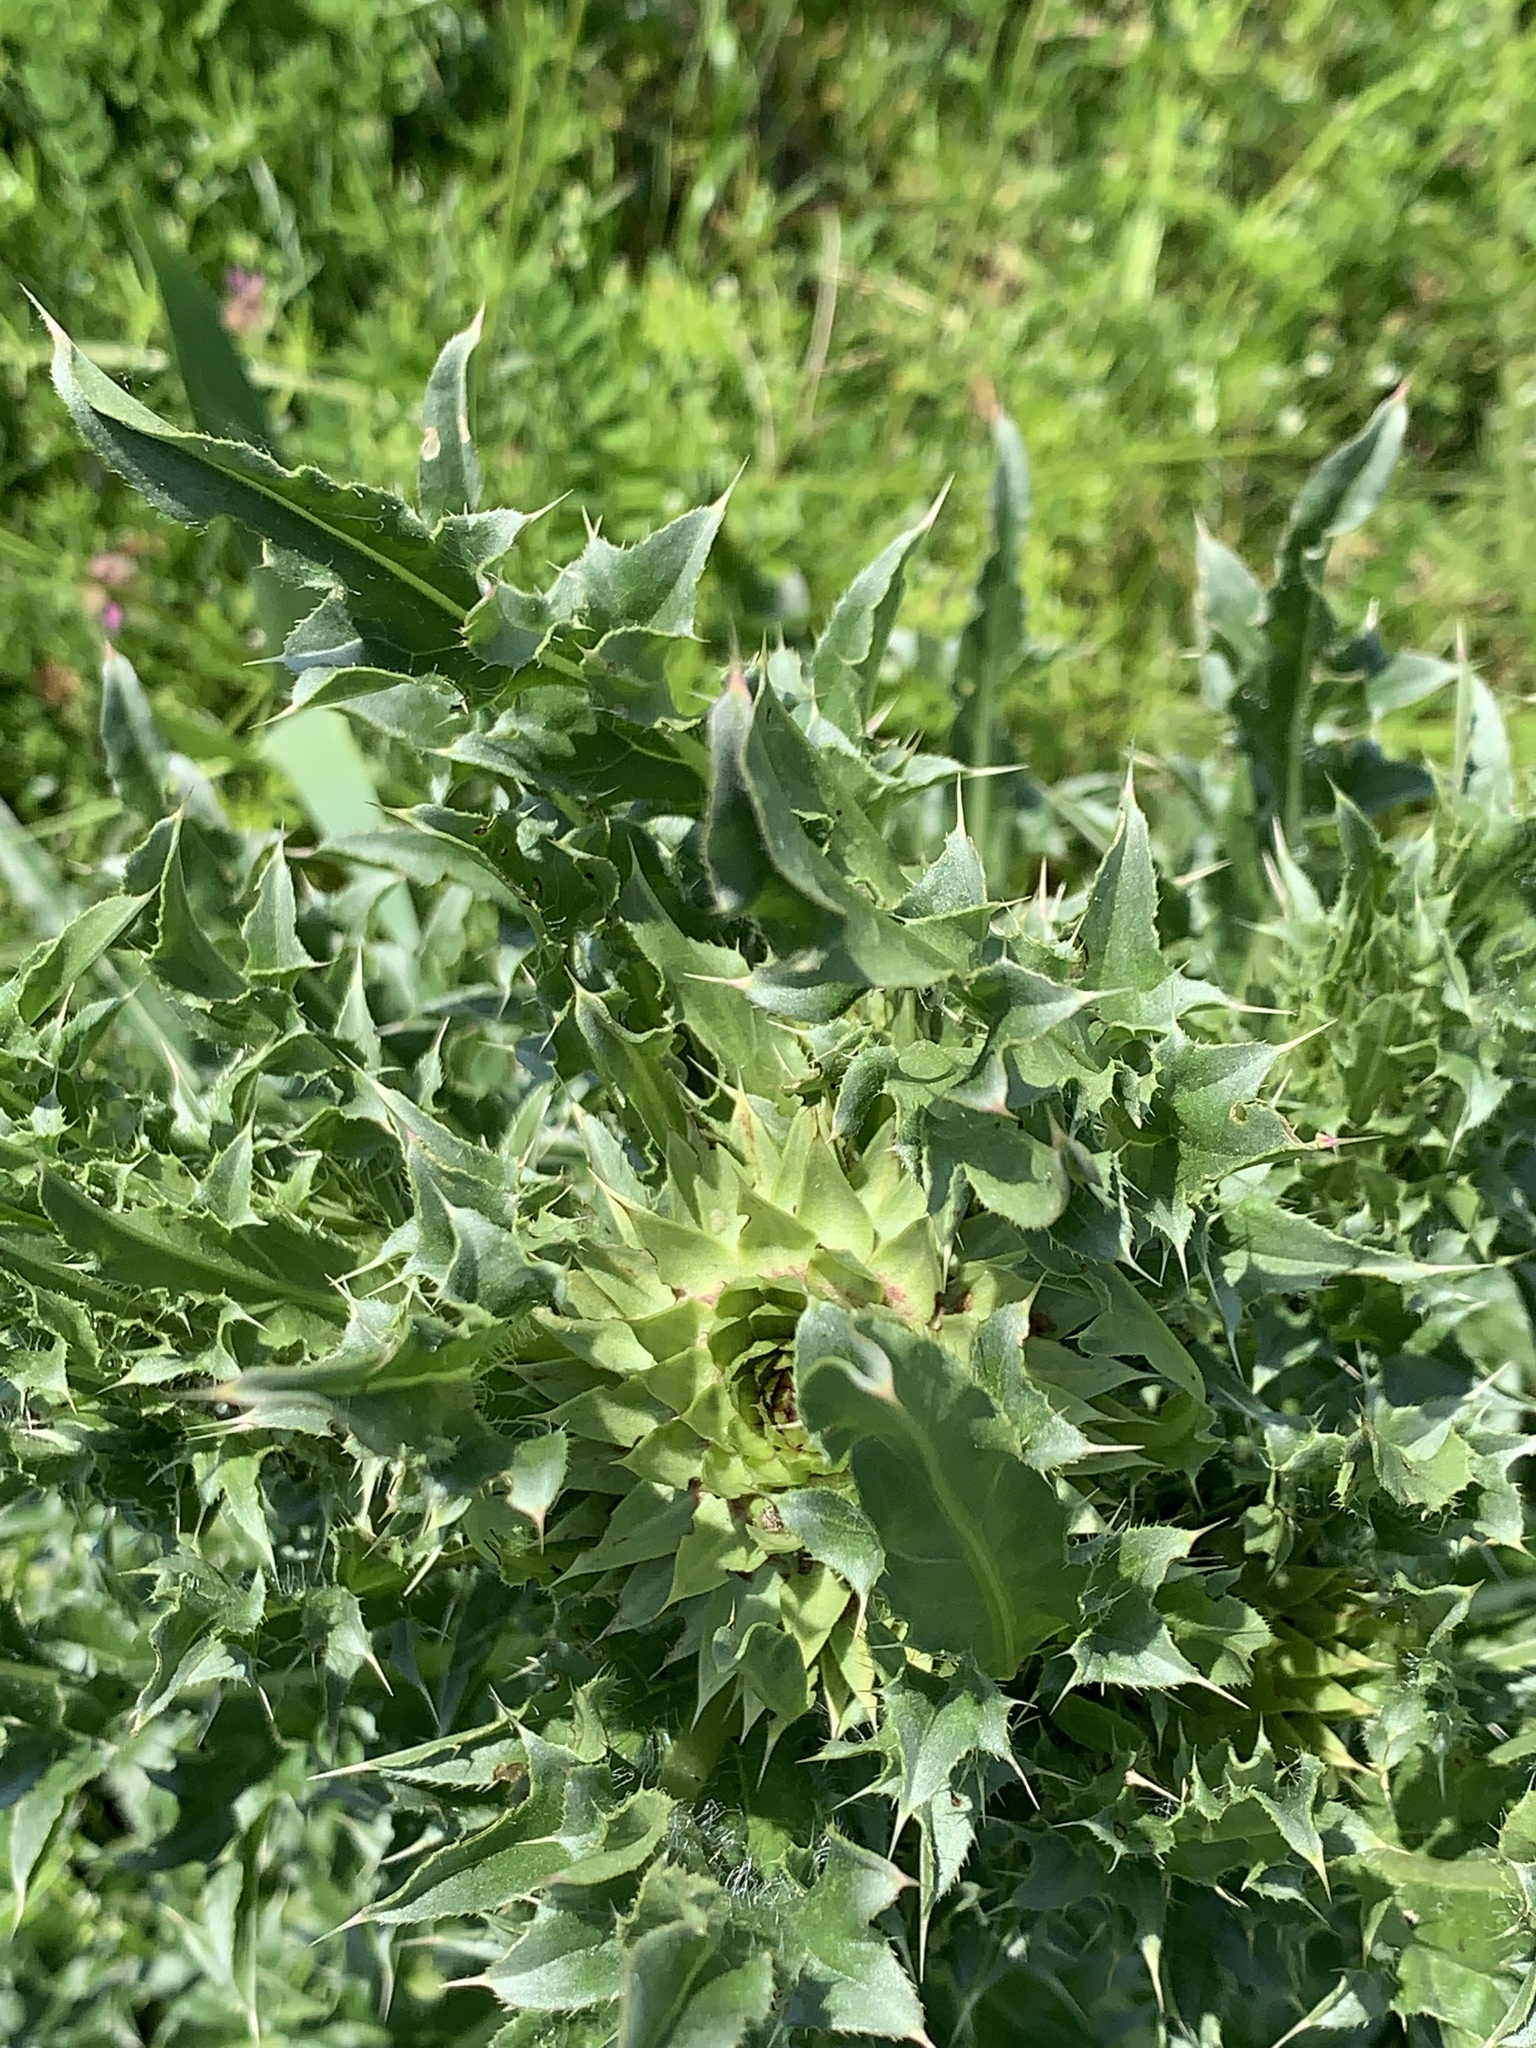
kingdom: Plantae
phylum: Tracheophyta
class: Magnoliopsida
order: Asterales
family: Asteraceae
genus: Carduus
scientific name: Carduus nutans
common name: Musk thistle
